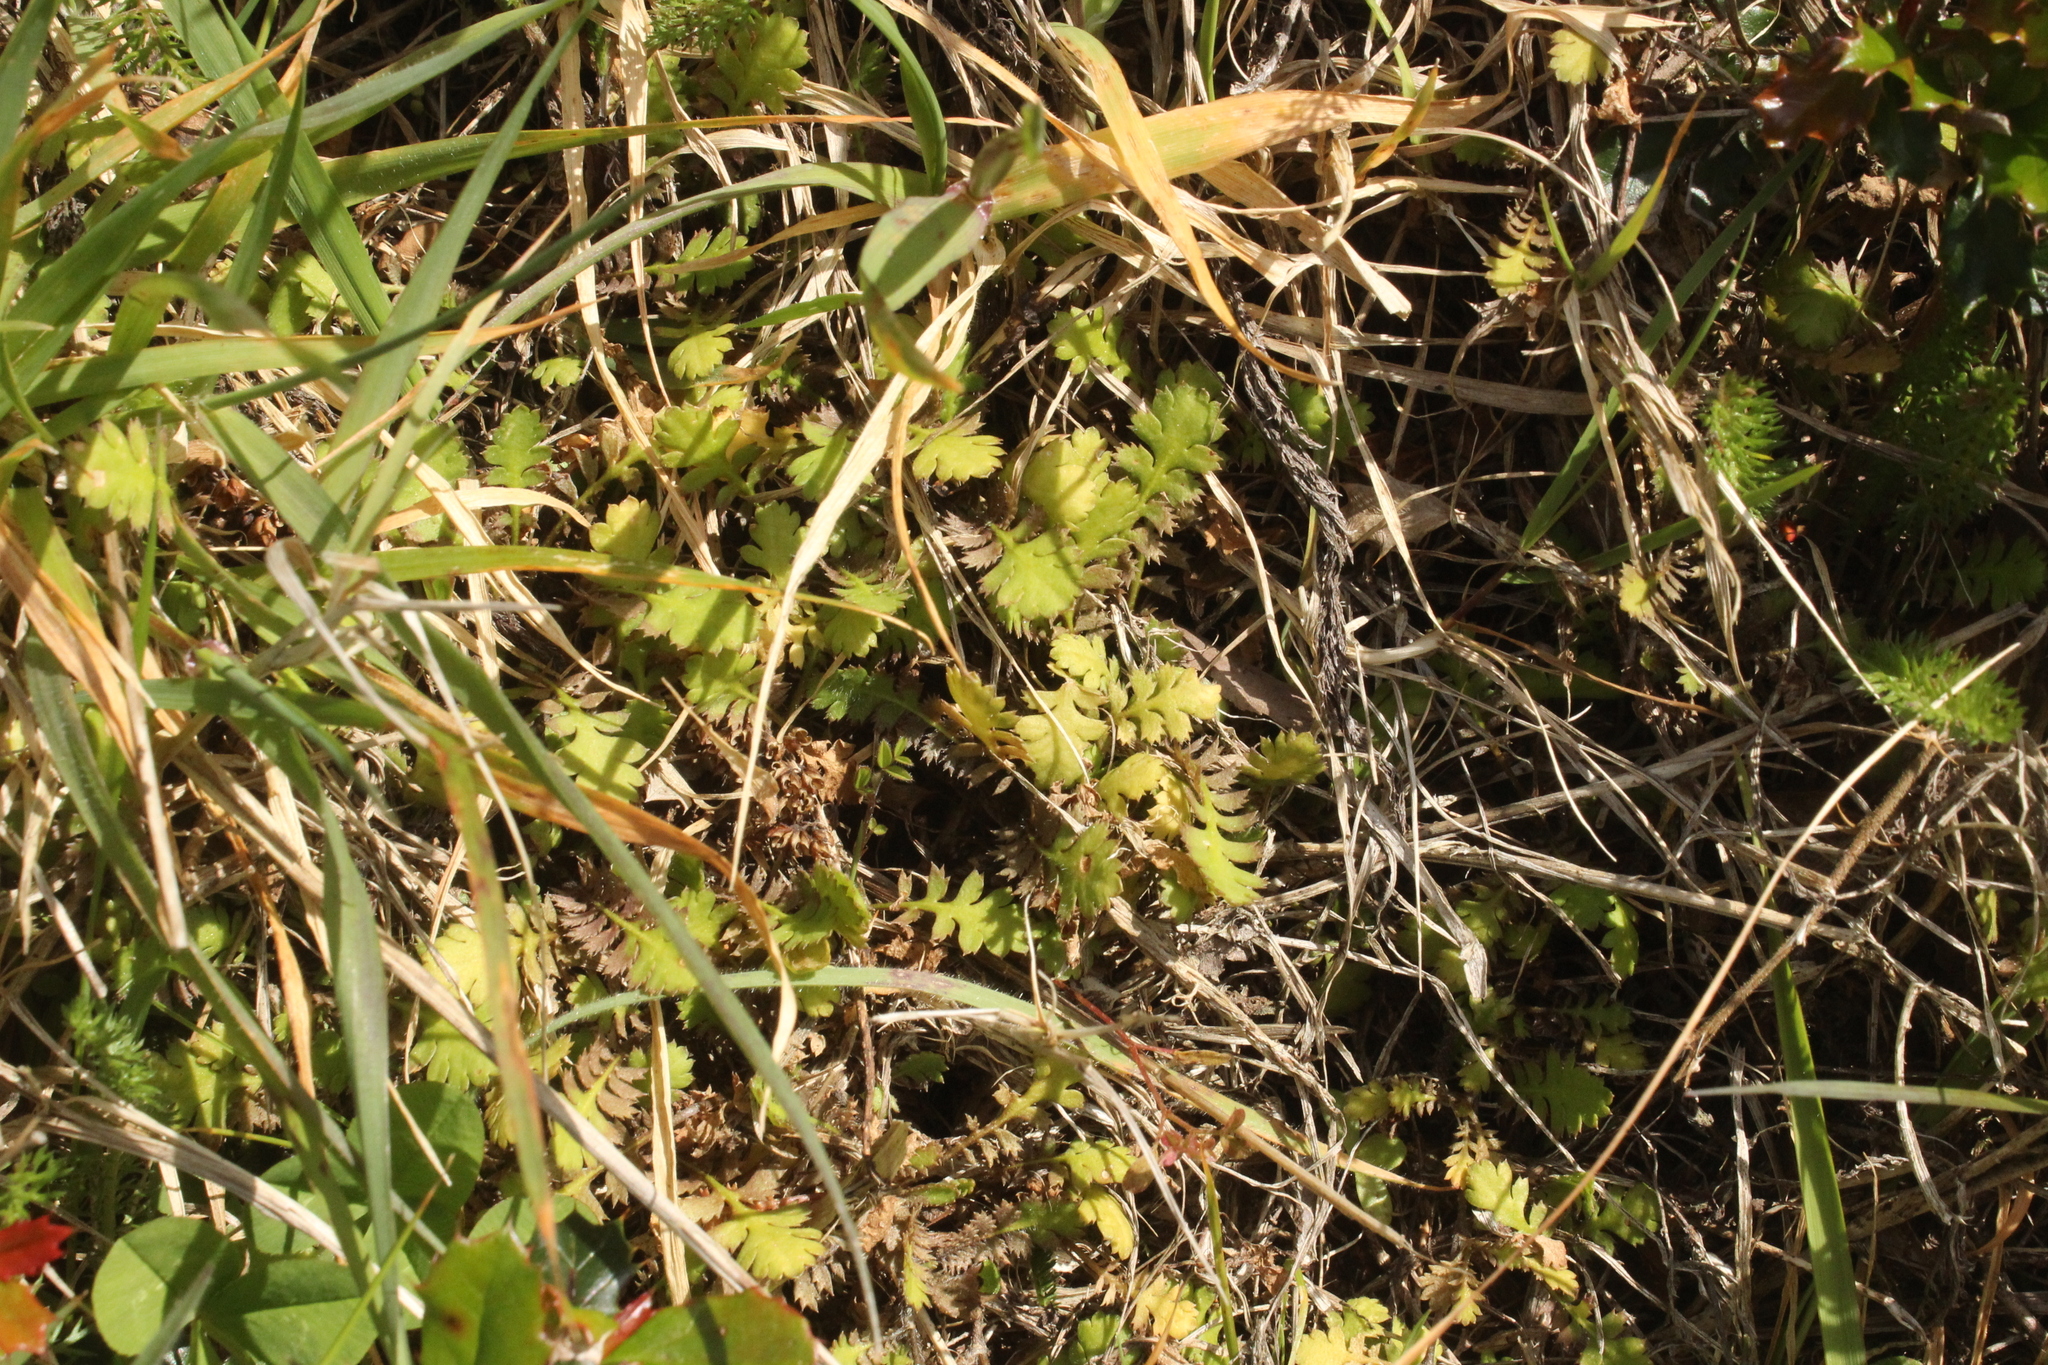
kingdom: Plantae
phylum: Tracheophyta
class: Magnoliopsida
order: Asterales
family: Asteraceae
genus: Leptinella
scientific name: Leptinella squalida
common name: New zealand brass-buttons
